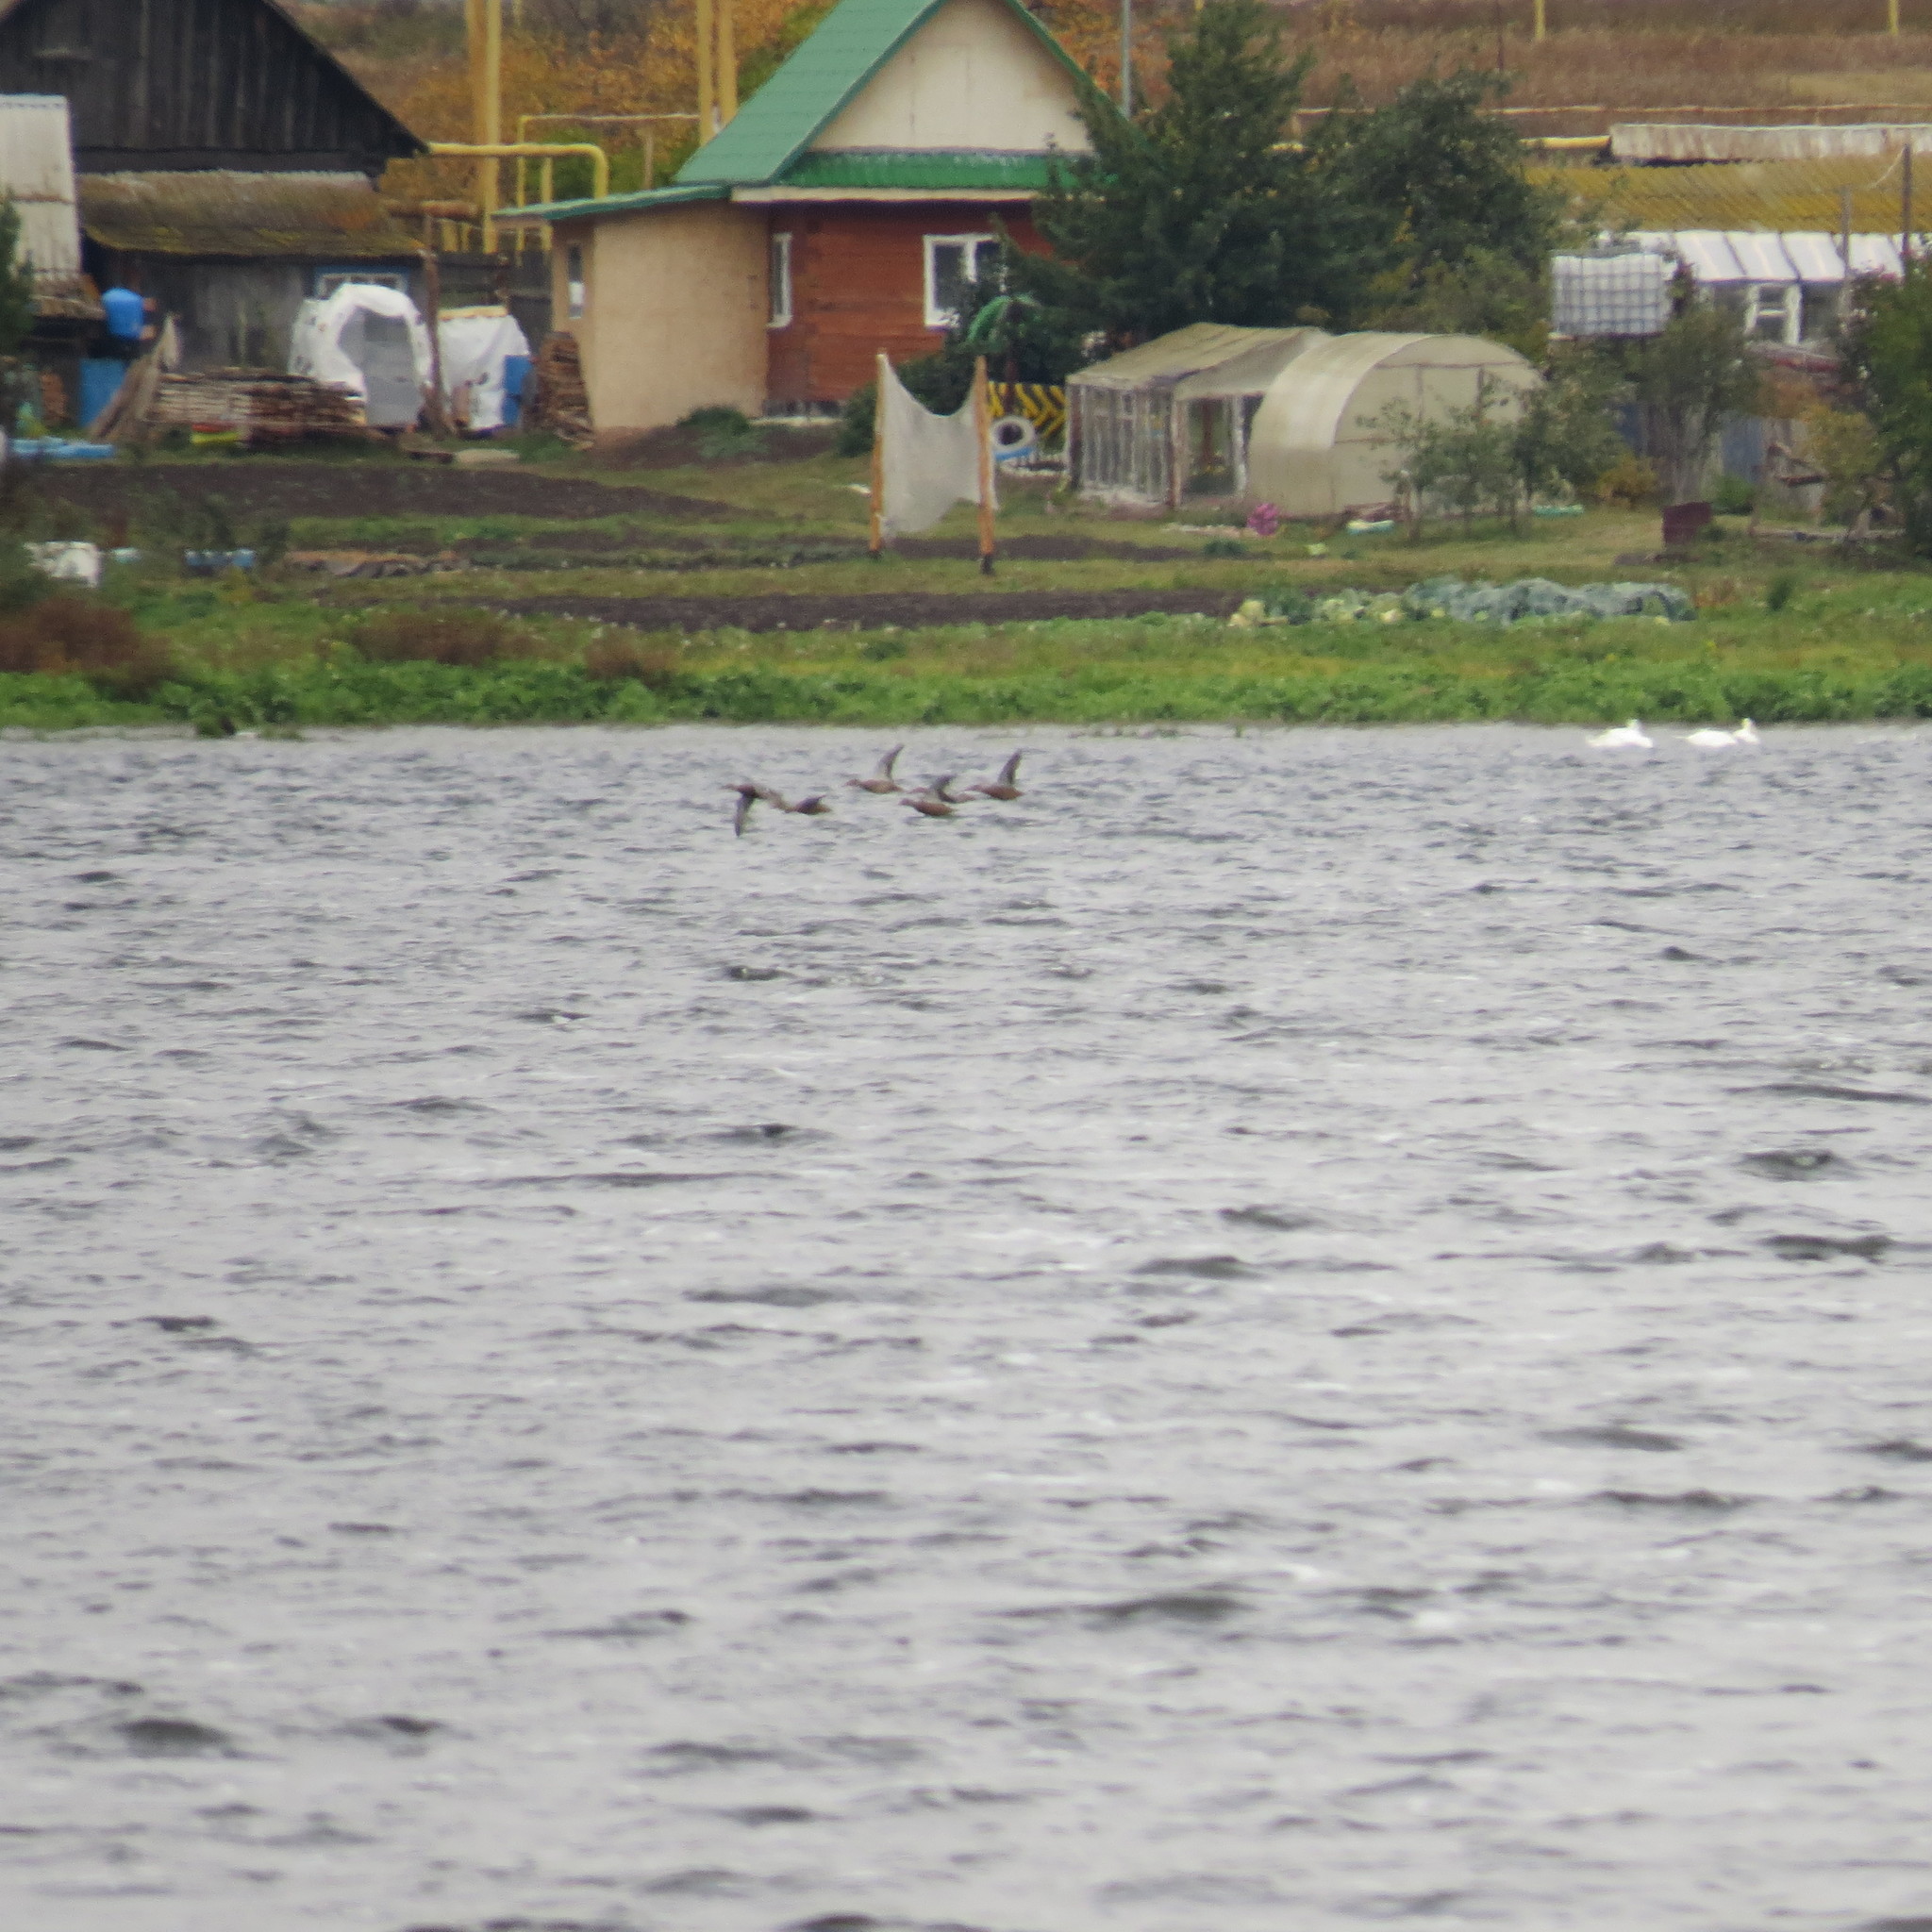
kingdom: Animalia
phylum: Chordata
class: Aves
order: Anseriformes
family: Anatidae
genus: Spatula
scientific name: Spatula clypeata
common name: Northern shoveler
